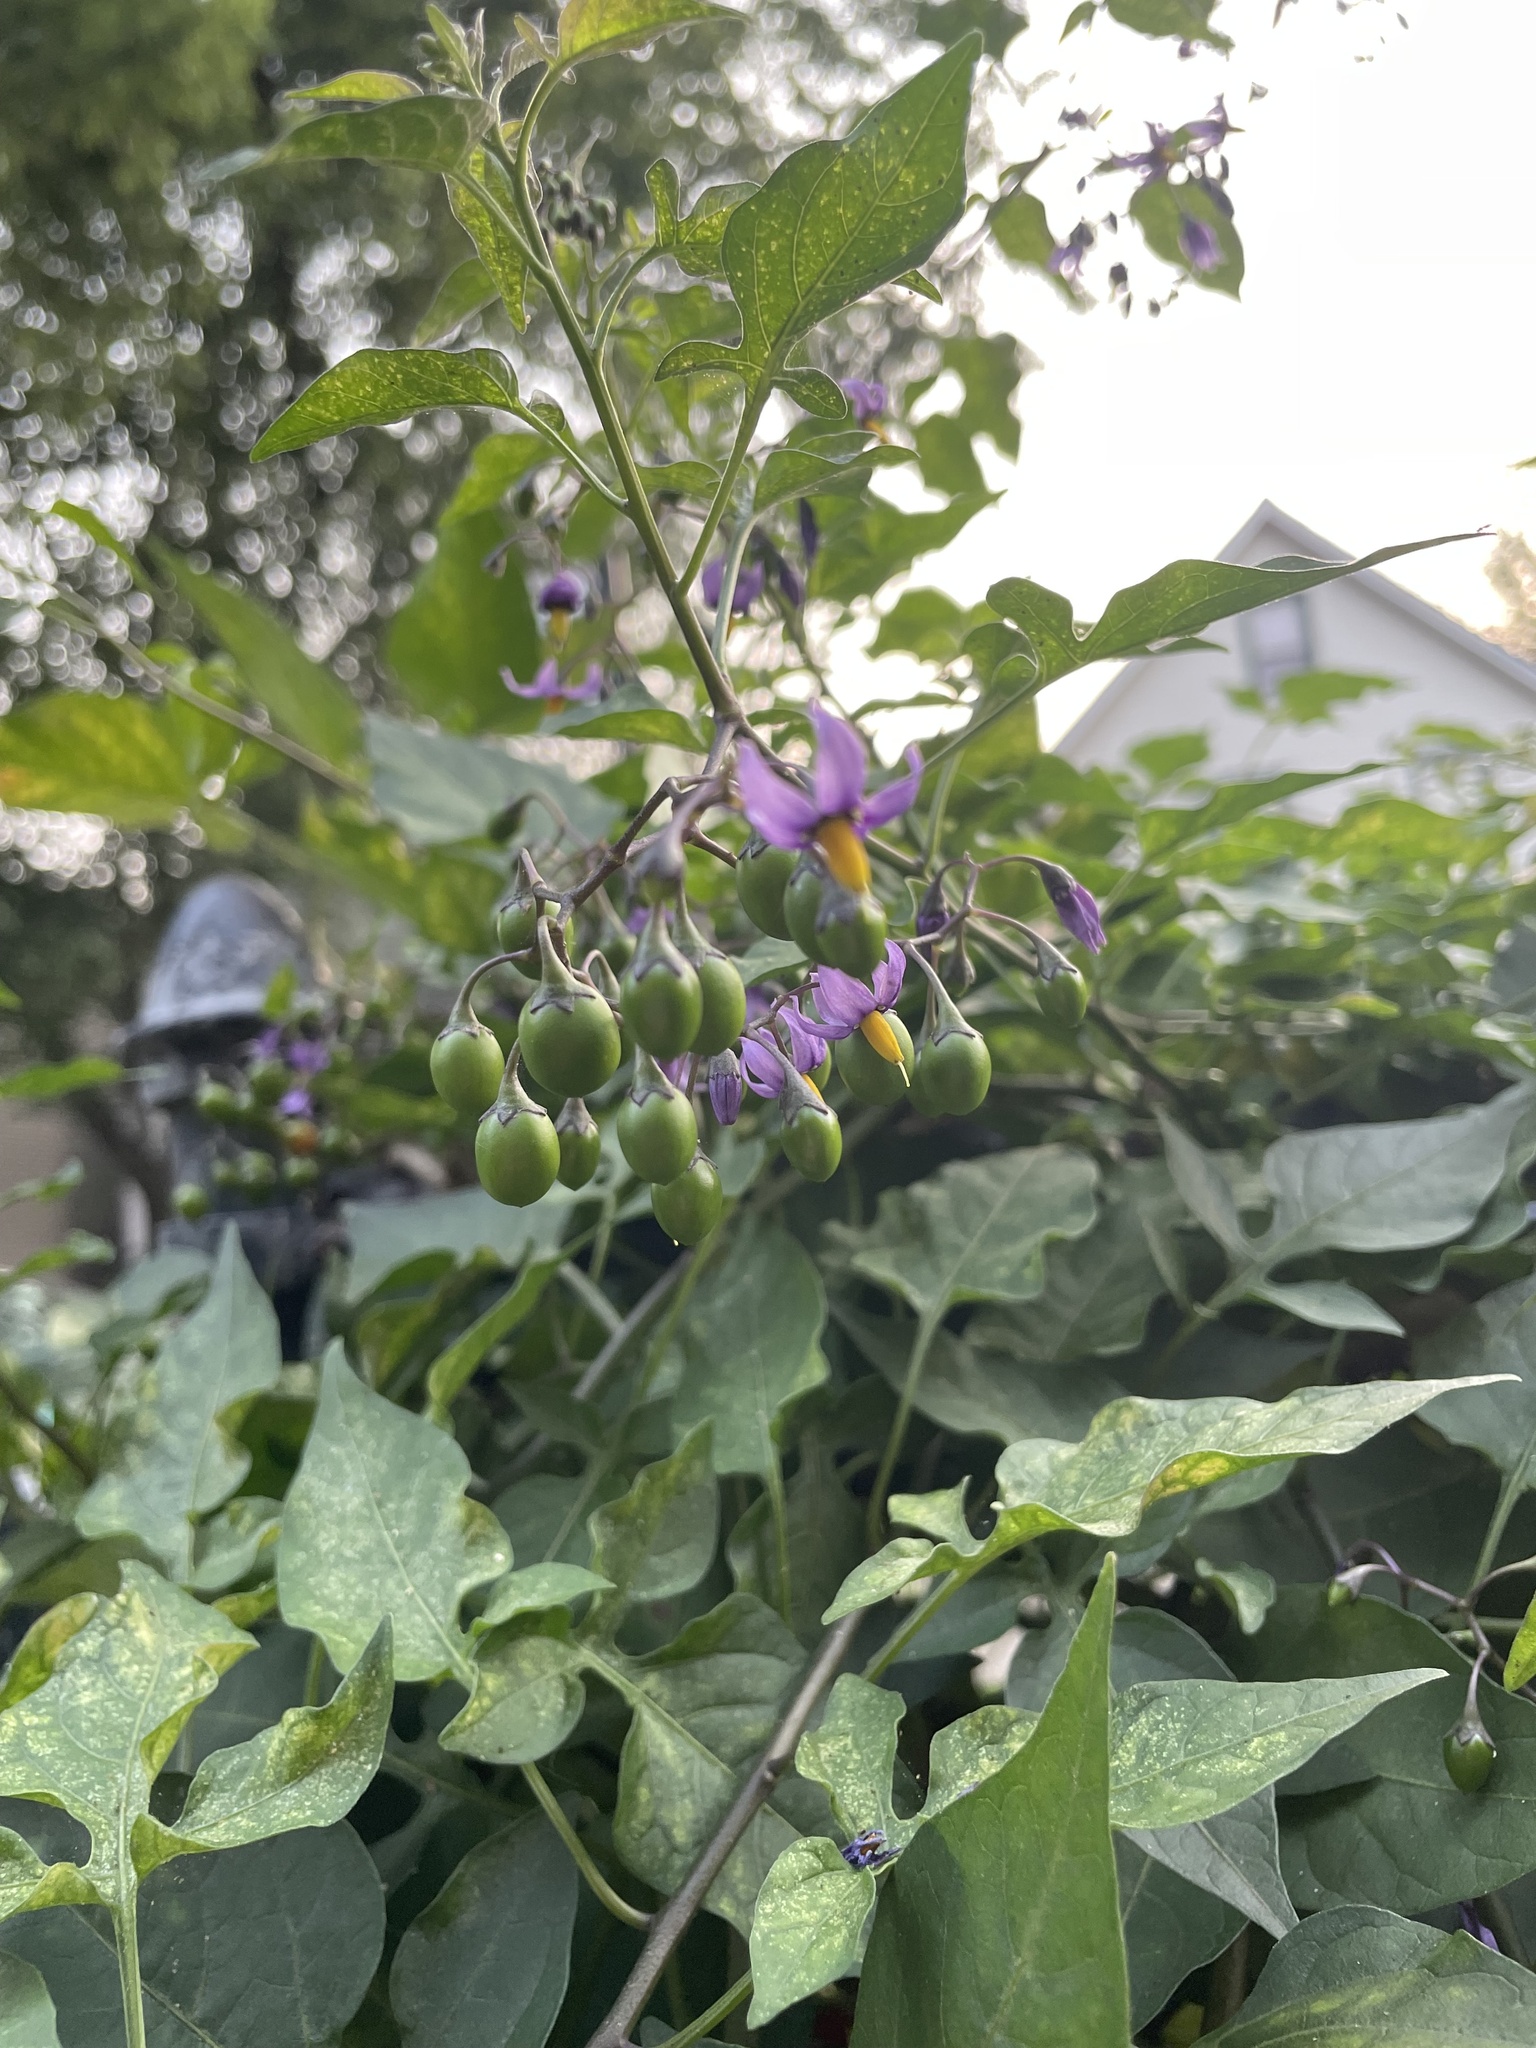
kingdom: Plantae
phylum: Tracheophyta
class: Magnoliopsida
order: Solanales
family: Solanaceae
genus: Solanum
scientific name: Solanum dulcamara
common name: Climbing nightshade
